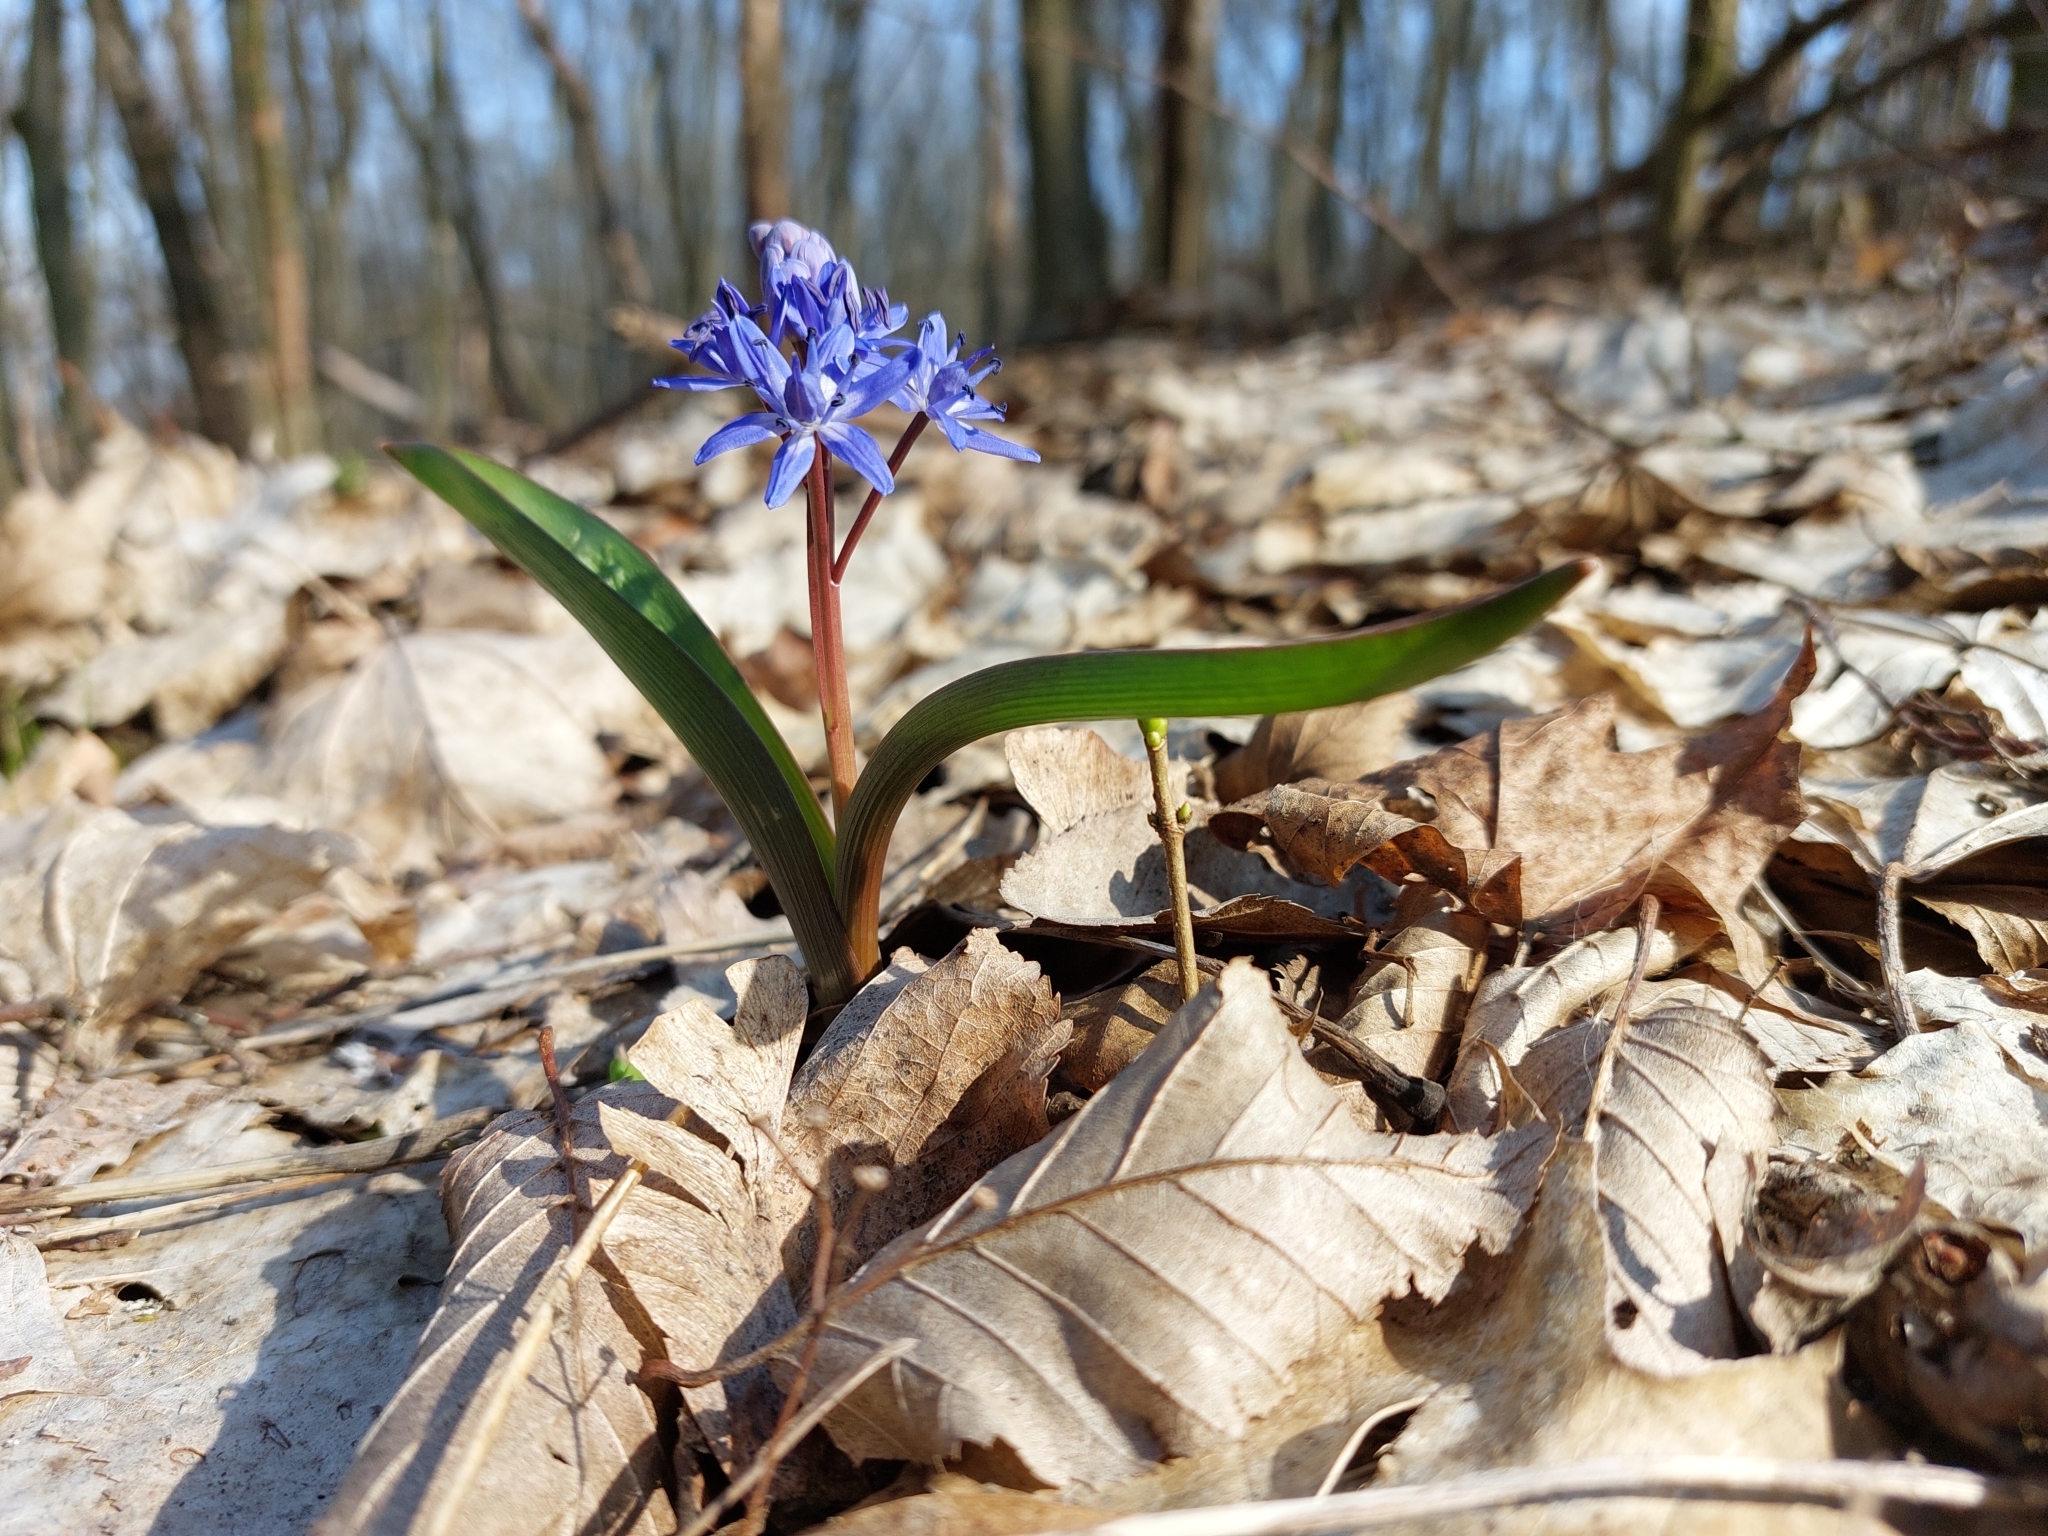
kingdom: Plantae
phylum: Tracheophyta
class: Liliopsida
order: Asparagales
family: Asparagaceae
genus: Scilla
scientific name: Scilla bifolia
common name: Alpine squill
